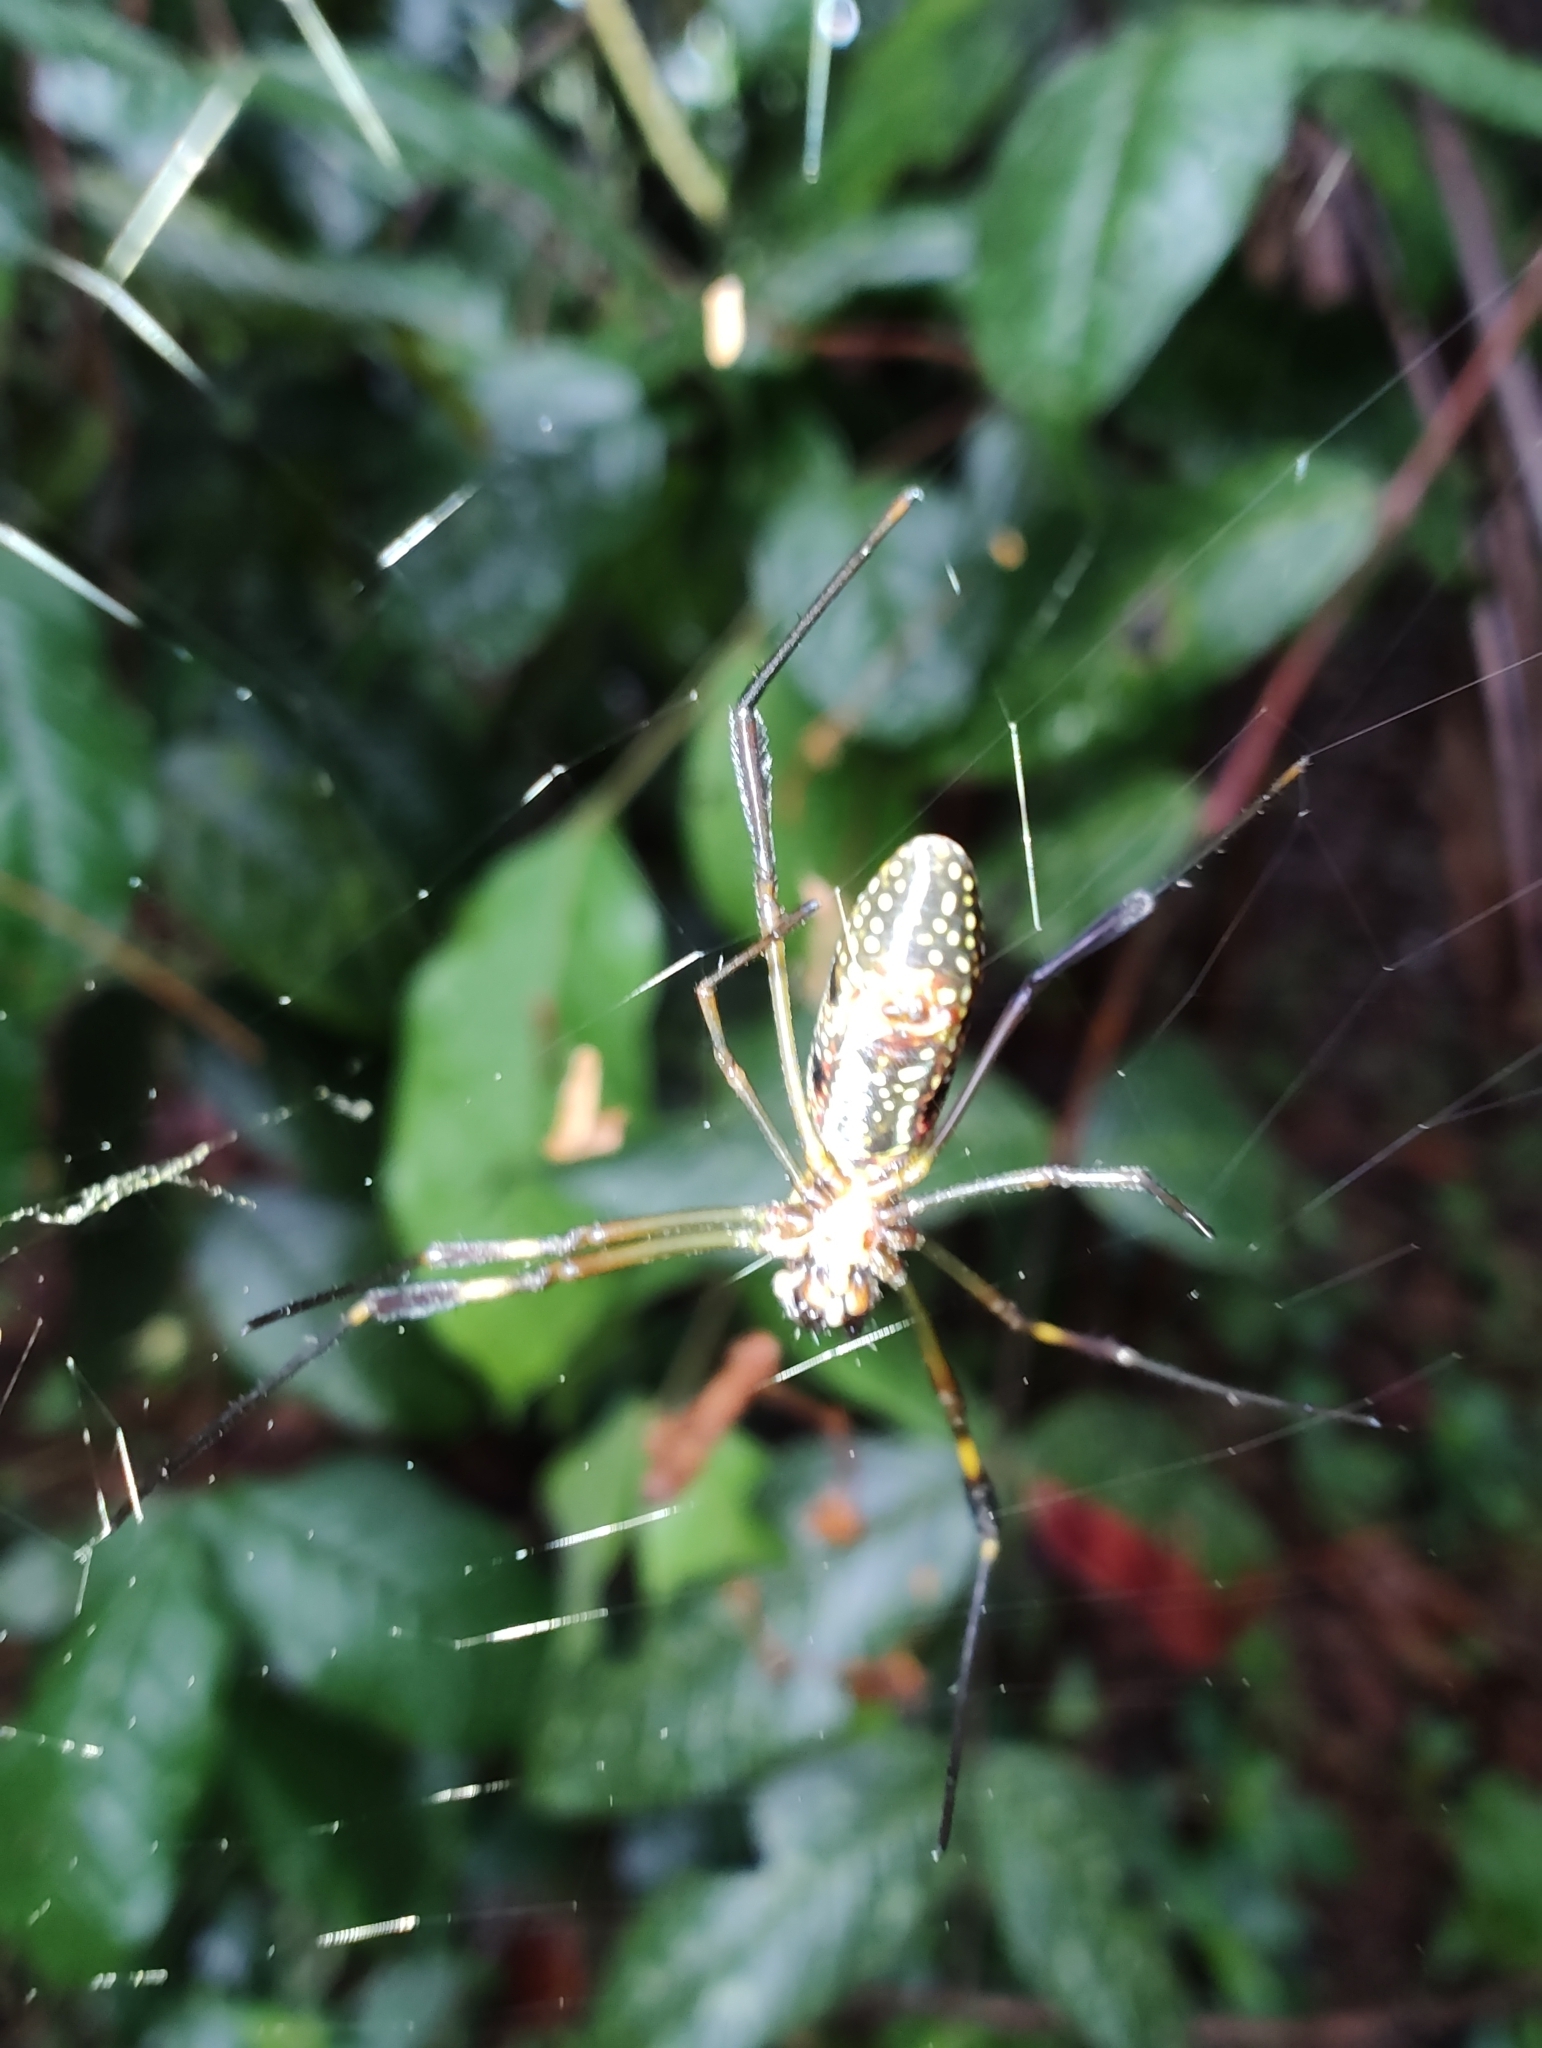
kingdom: Animalia
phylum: Arthropoda
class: Arachnida
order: Araneae
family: Araneidae
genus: Trichonephila
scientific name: Trichonephila clavipes
